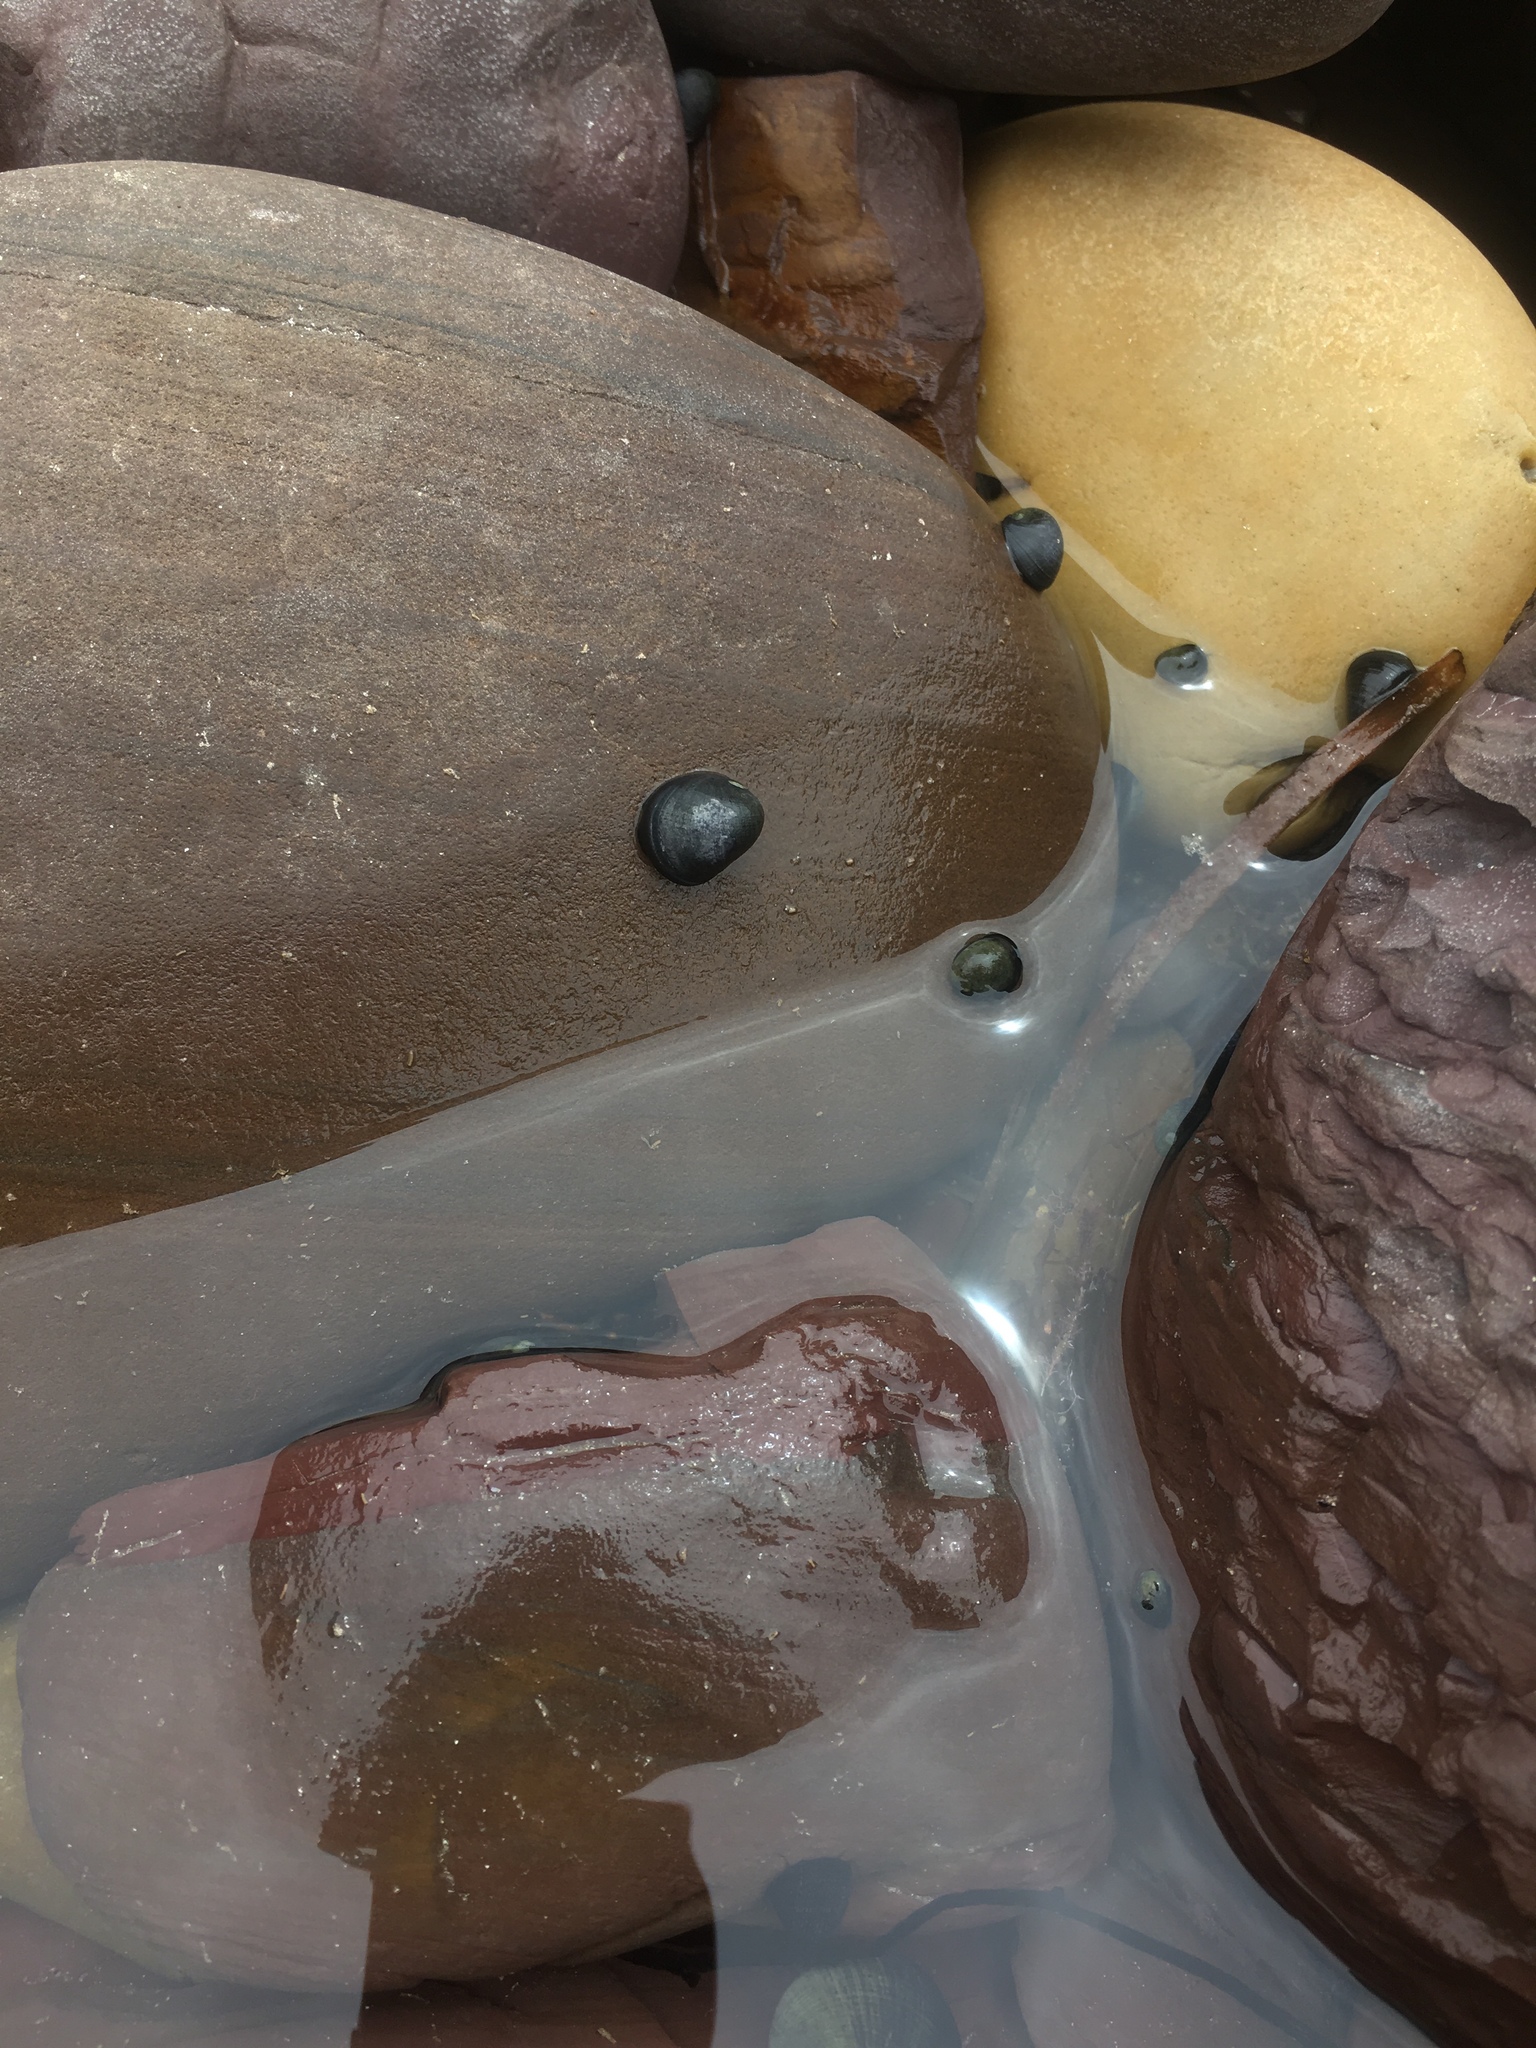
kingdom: Animalia
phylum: Mollusca
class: Gastropoda
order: Cycloneritida
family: Neritidae
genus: Nerita
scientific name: Nerita atramentosa
